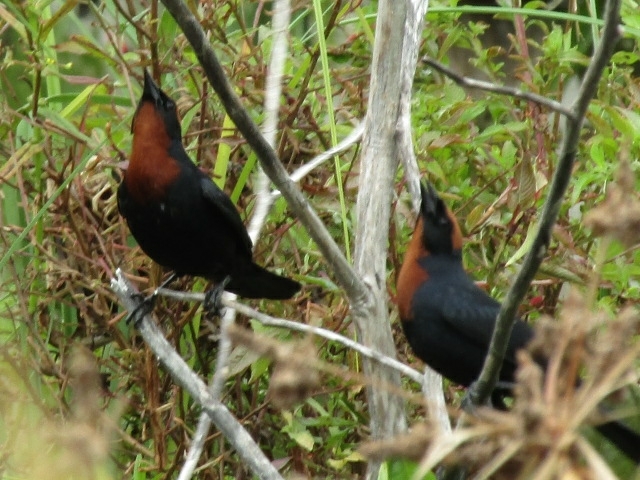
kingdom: Animalia
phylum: Chordata
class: Aves
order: Passeriformes
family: Icteridae
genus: Chrysomus
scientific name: Chrysomus ruficapillus
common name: Chestnut-capped blackbird
